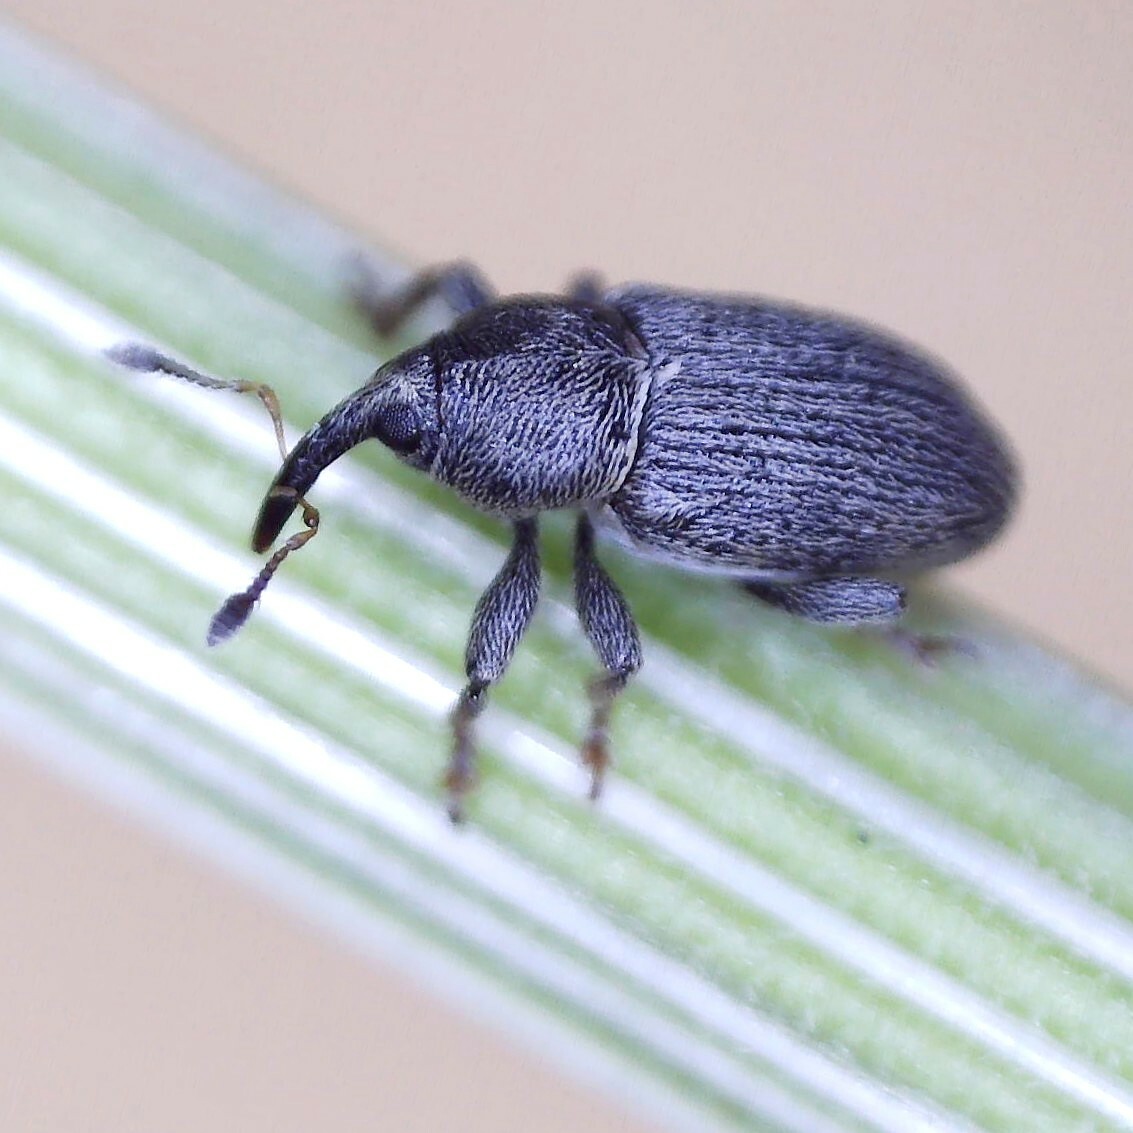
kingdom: Animalia
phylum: Arthropoda
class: Insecta
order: Coleoptera
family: Curculionidae
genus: Tychius
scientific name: Tychius picirostris
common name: Clover seed weevil
